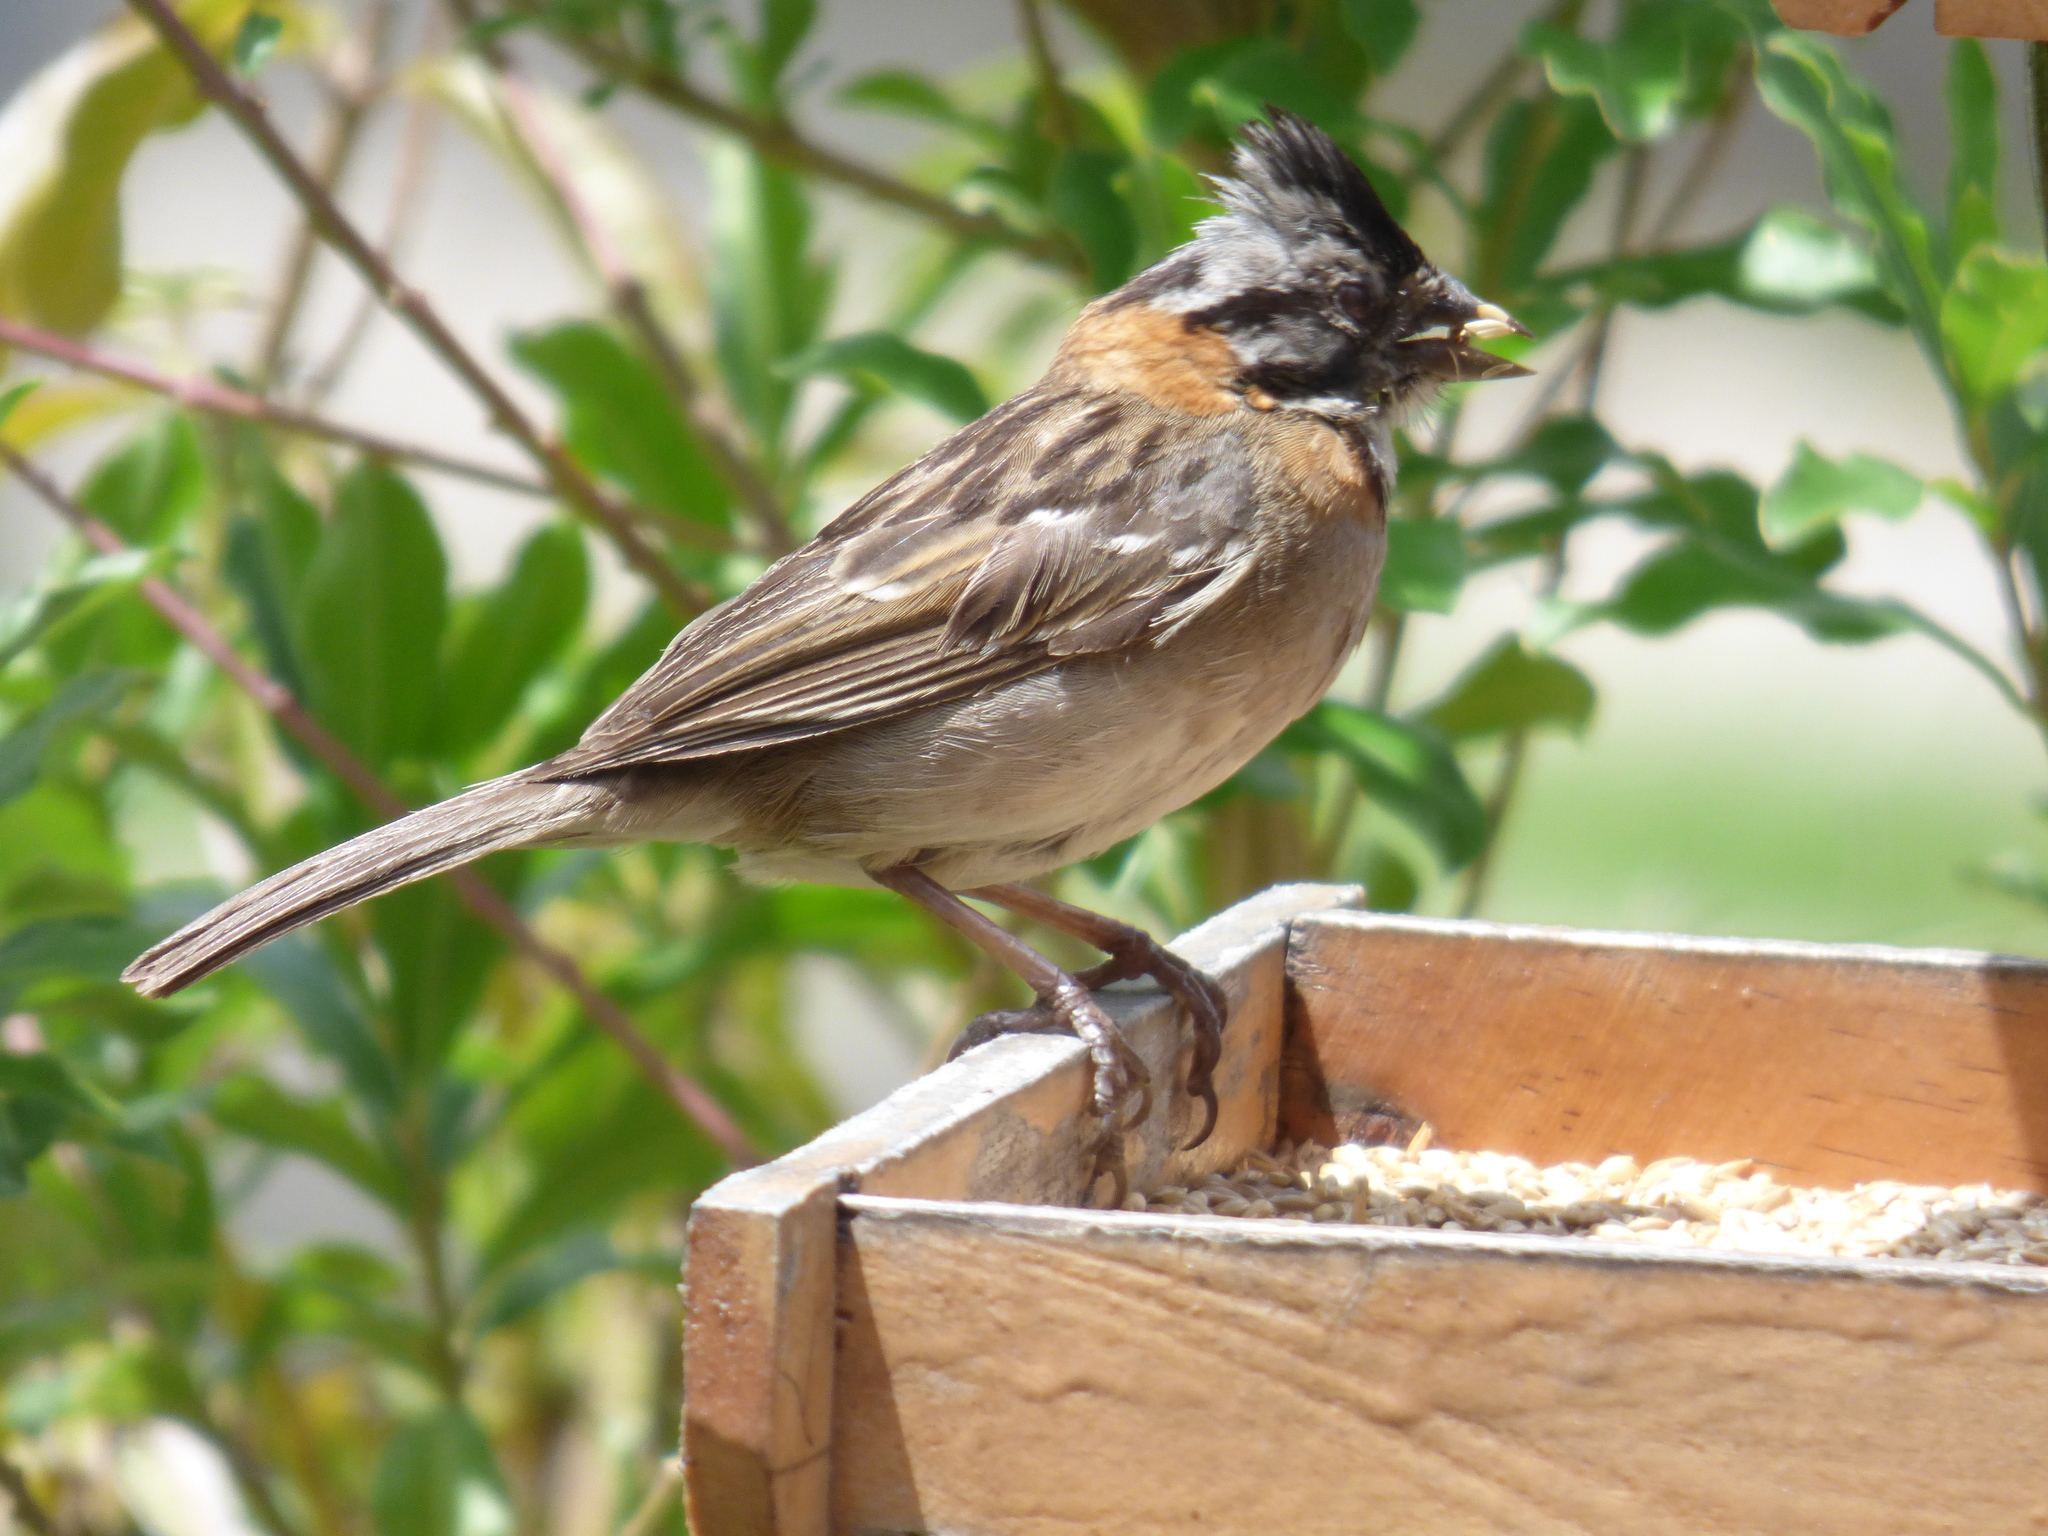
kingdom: Animalia
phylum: Chordata
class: Aves
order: Passeriformes
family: Passerellidae
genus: Zonotrichia
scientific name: Zonotrichia capensis
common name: Rufous-collared sparrow
